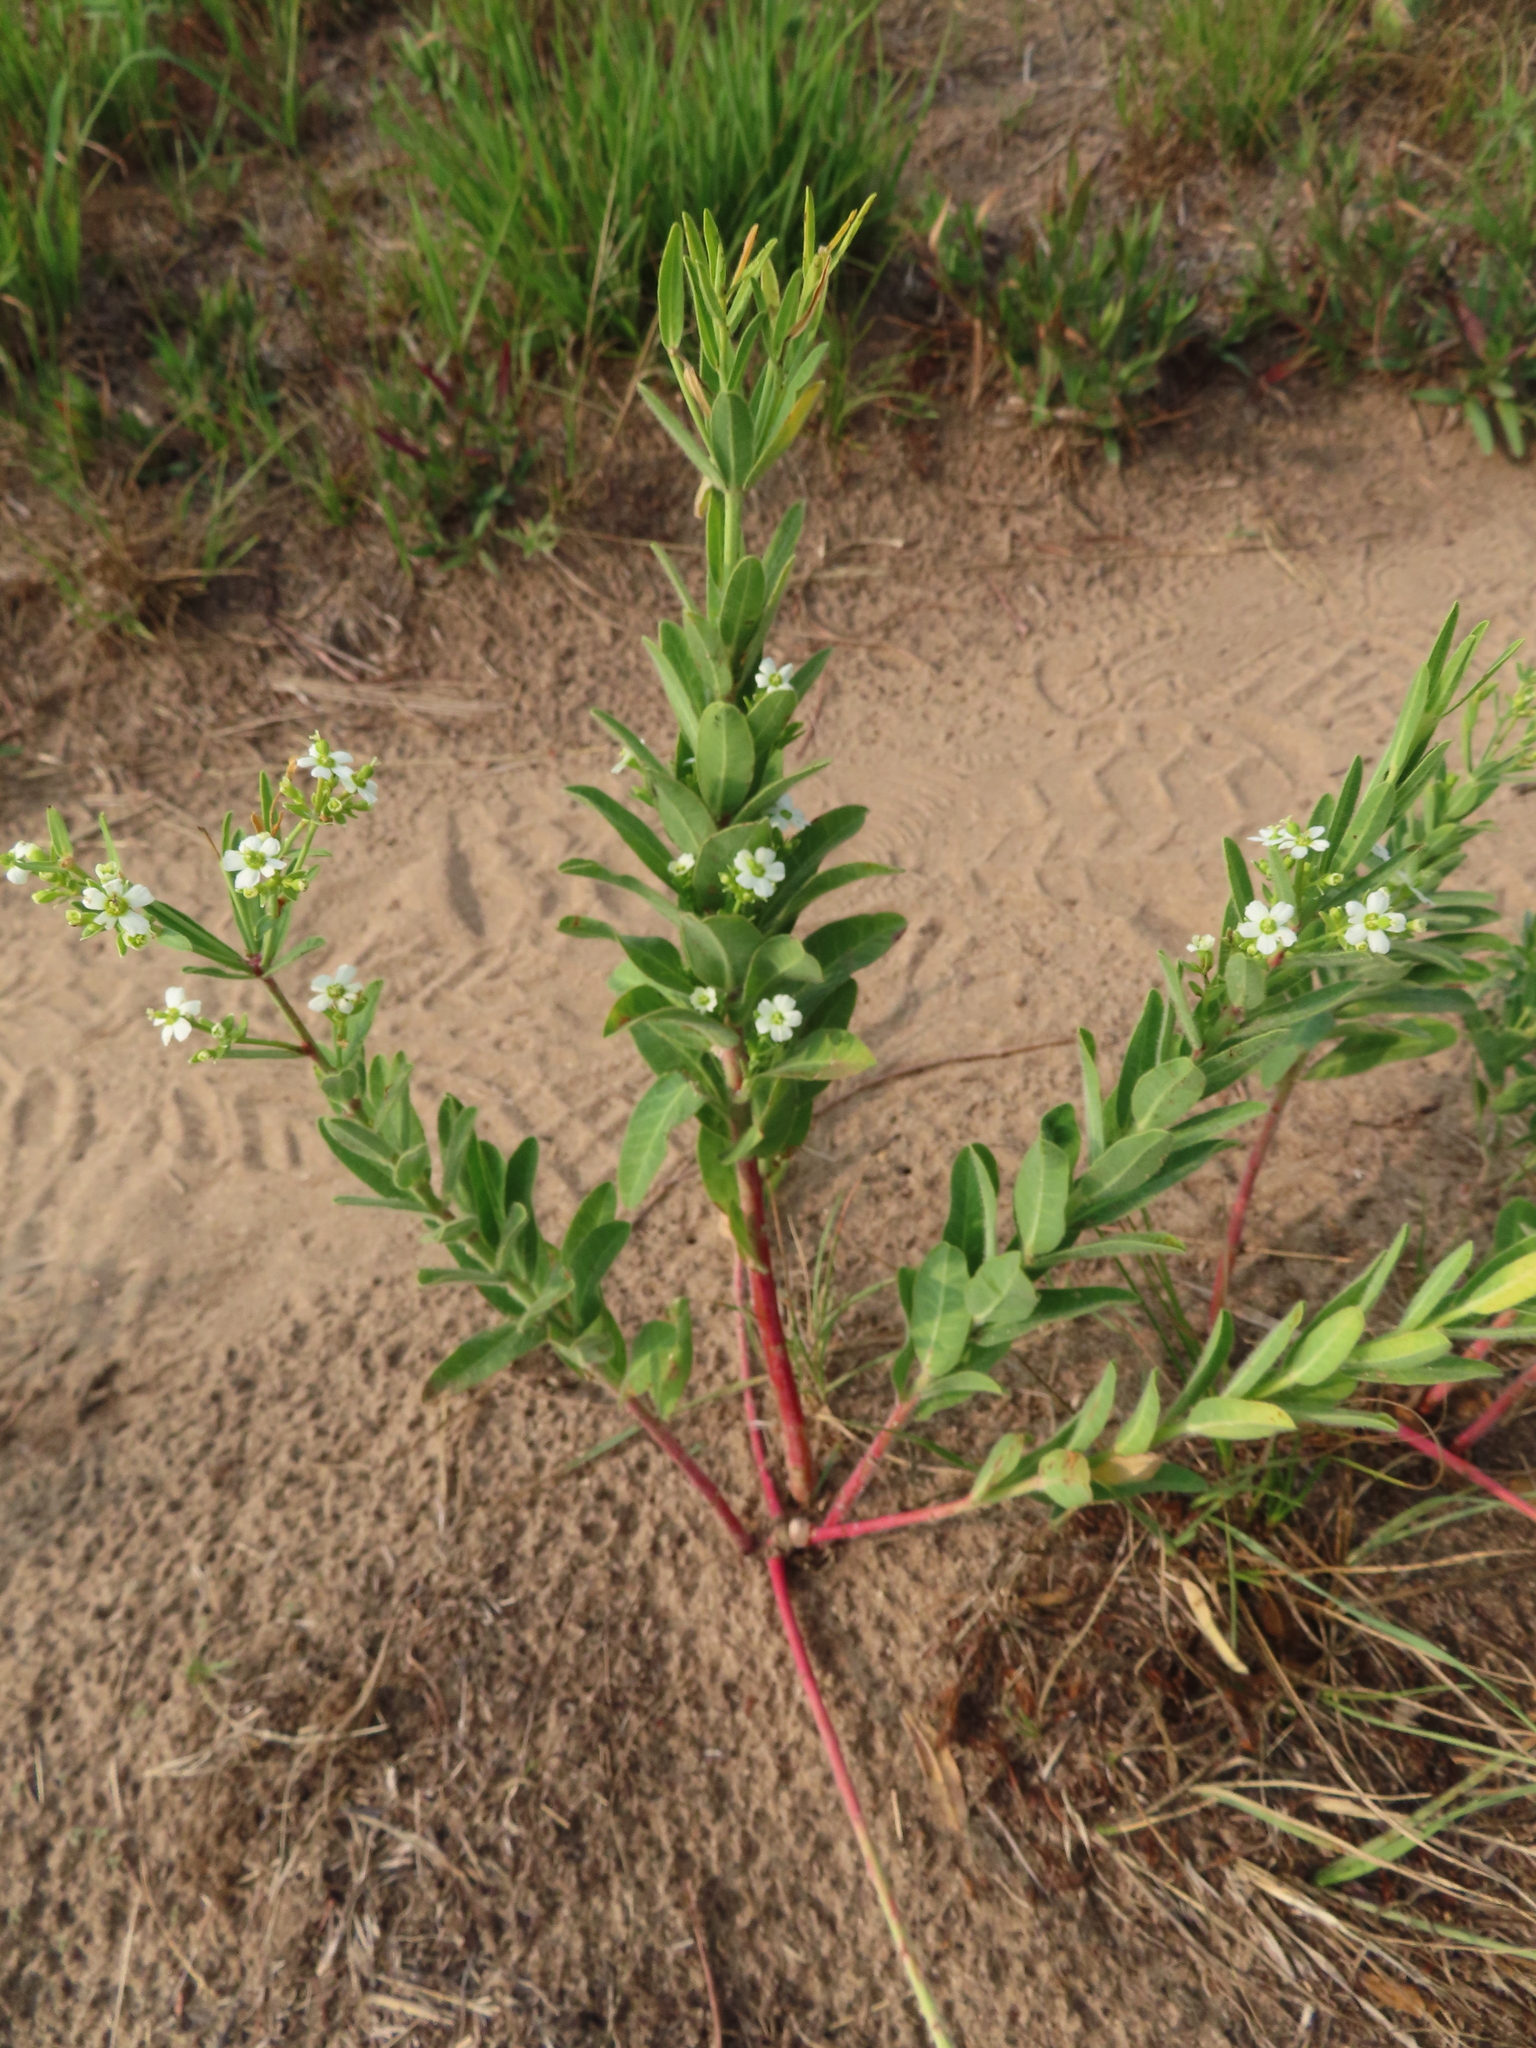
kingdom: Plantae
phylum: Tracheophyta
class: Magnoliopsida
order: Malpighiales
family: Euphorbiaceae
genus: Euphorbia
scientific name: Euphorbia corollata
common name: Flowering spurge
